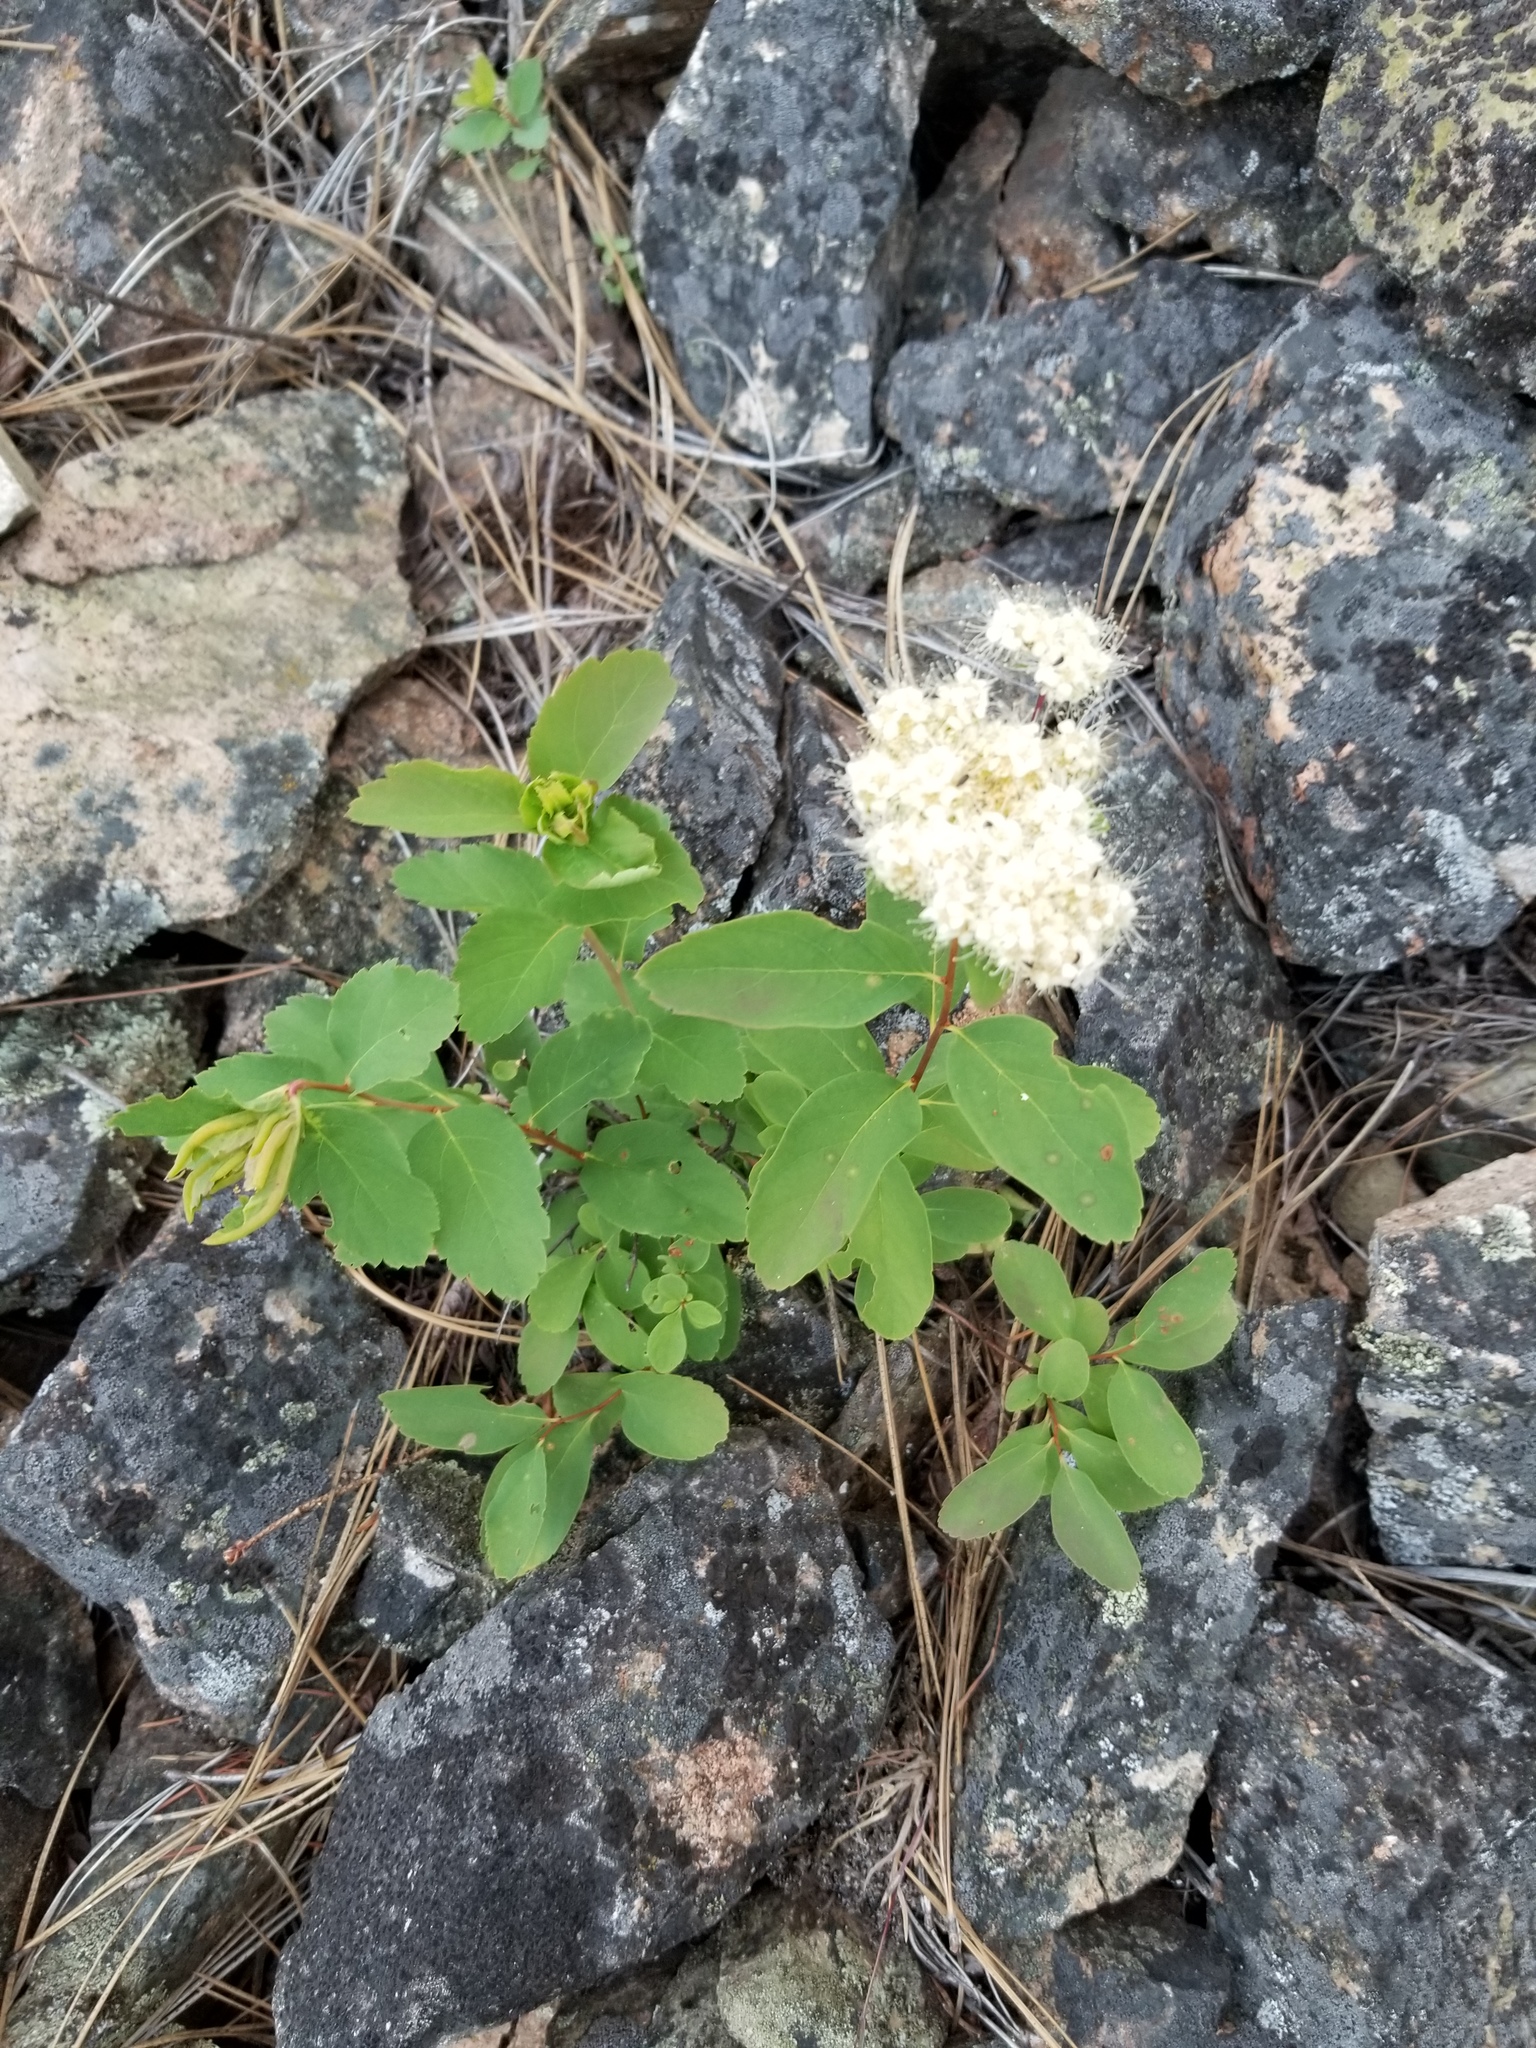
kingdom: Plantae
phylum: Tracheophyta
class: Magnoliopsida
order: Rosales
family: Rosaceae
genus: Spiraea
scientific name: Spiraea lucida
